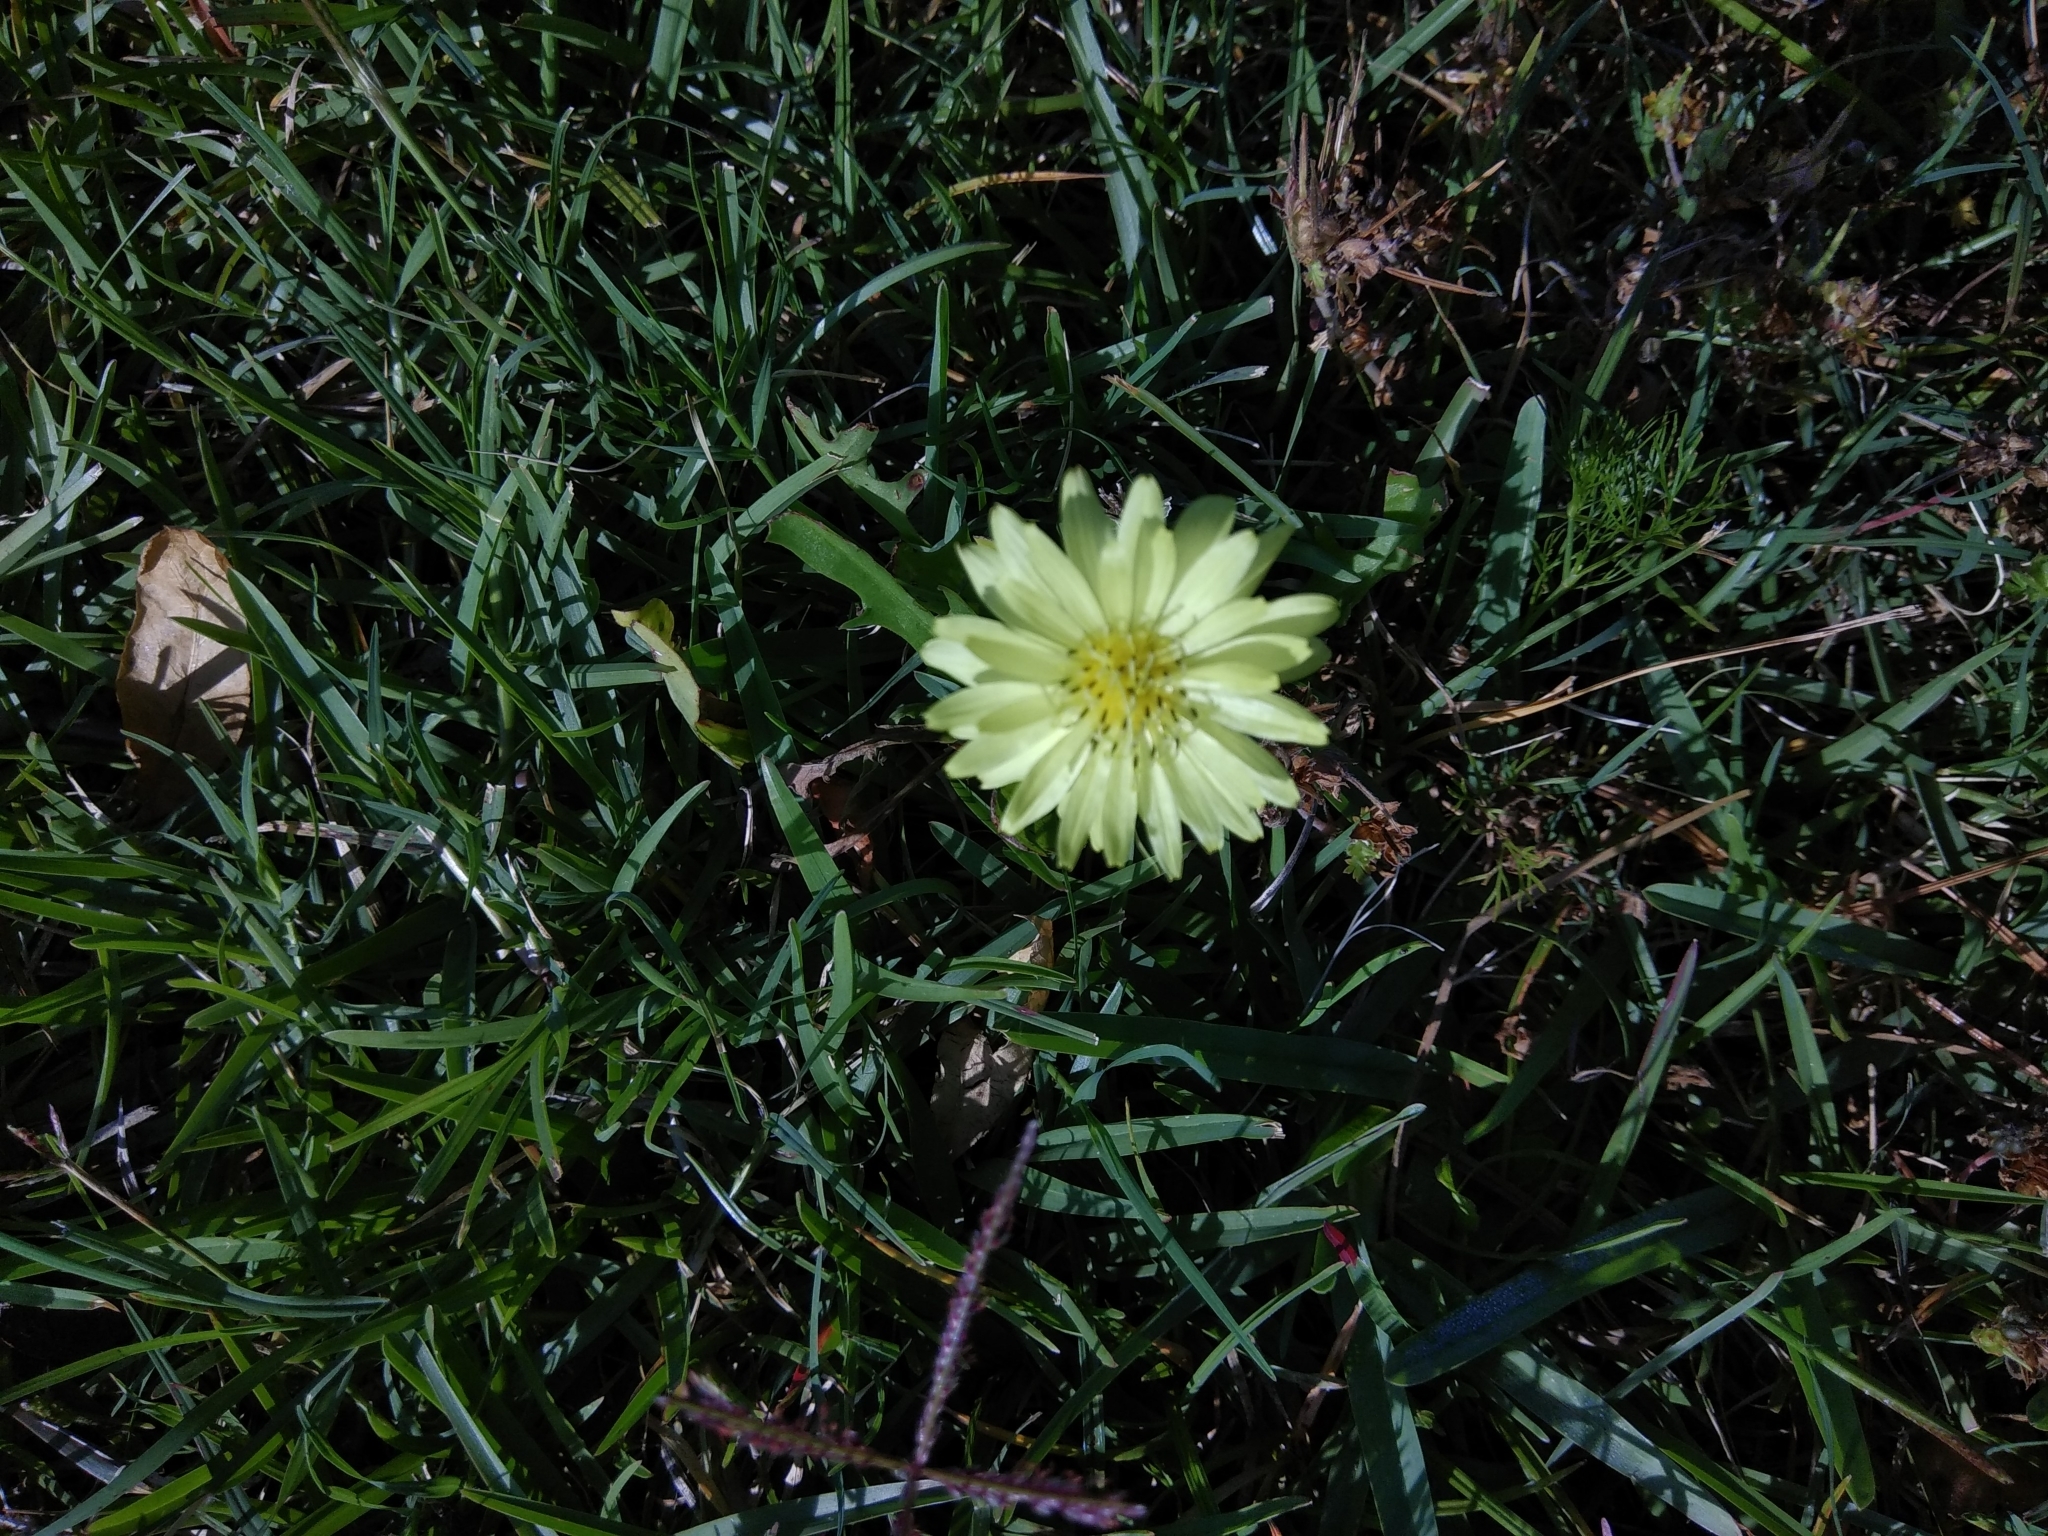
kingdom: Plantae
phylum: Tracheophyta
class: Magnoliopsida
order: Asterales
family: Asteraceae
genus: Pyrrhopappus
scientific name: Pyrrhopappus carolinianus
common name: Carolina desert-chicory
